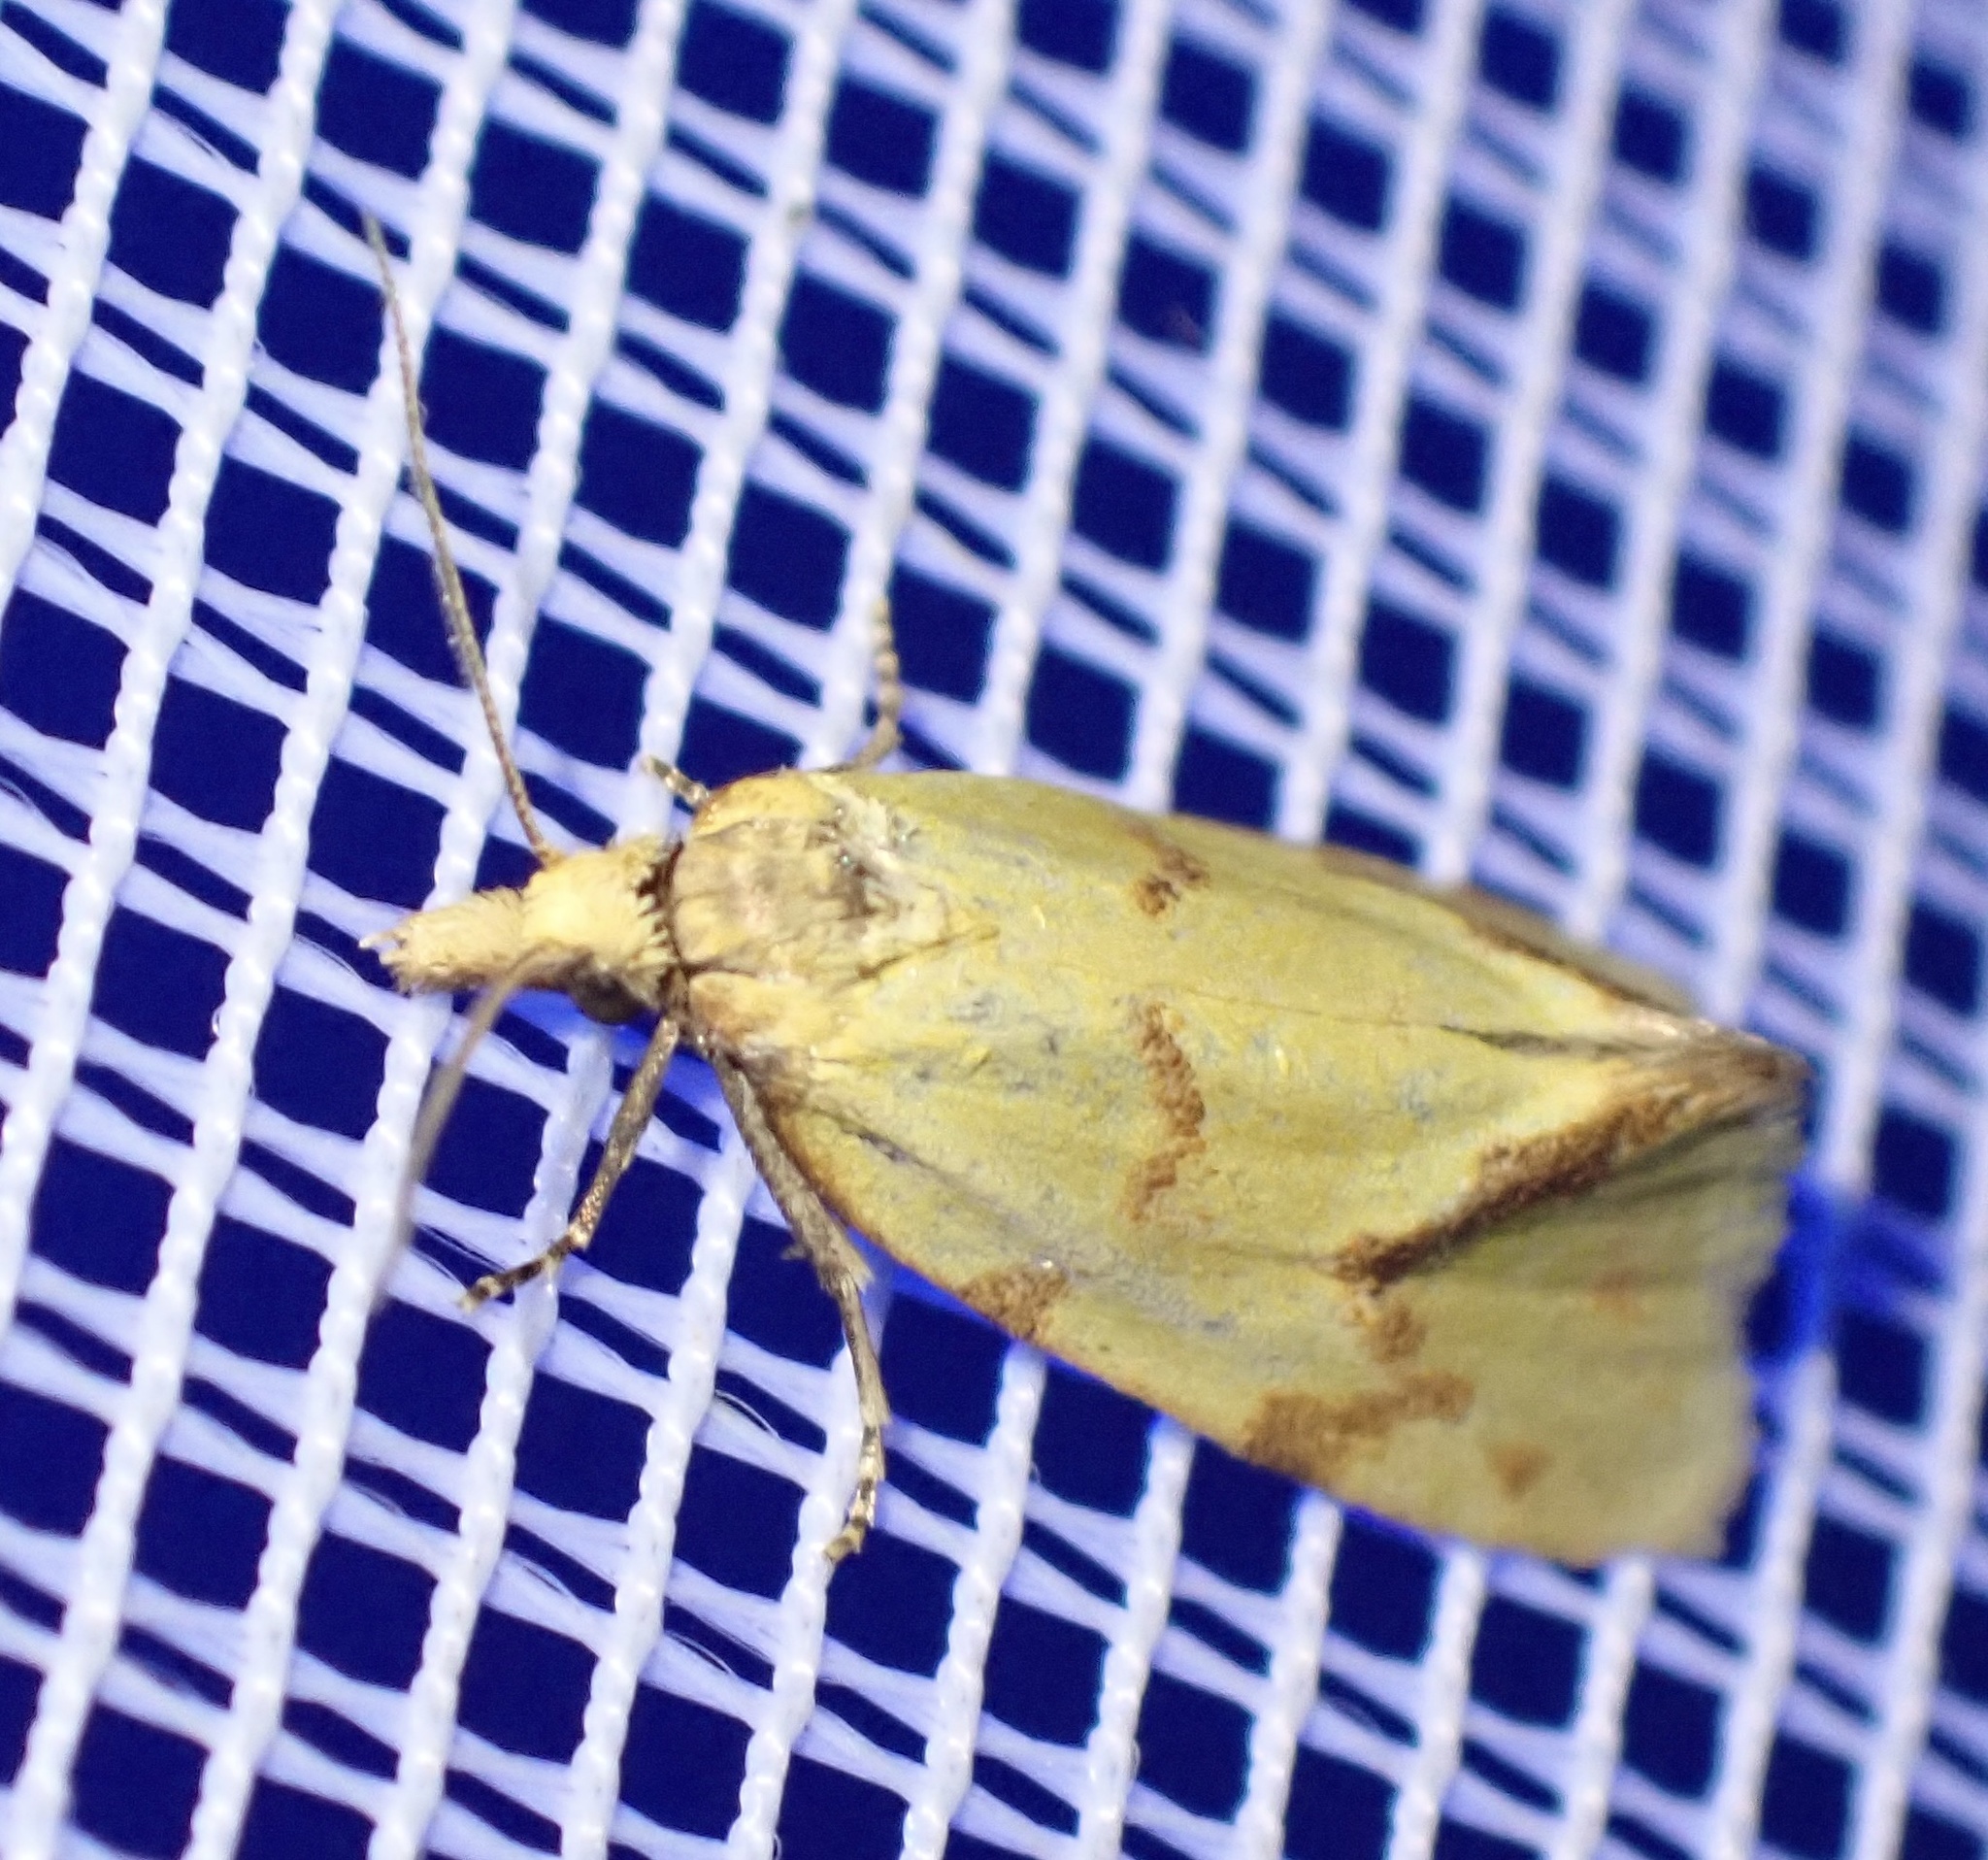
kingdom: Animalia
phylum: Arthropoda
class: Insecta
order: Lepidoptera
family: Tortricidae
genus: Agapeta
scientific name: Agapeta hamana
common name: Common yellow conch
